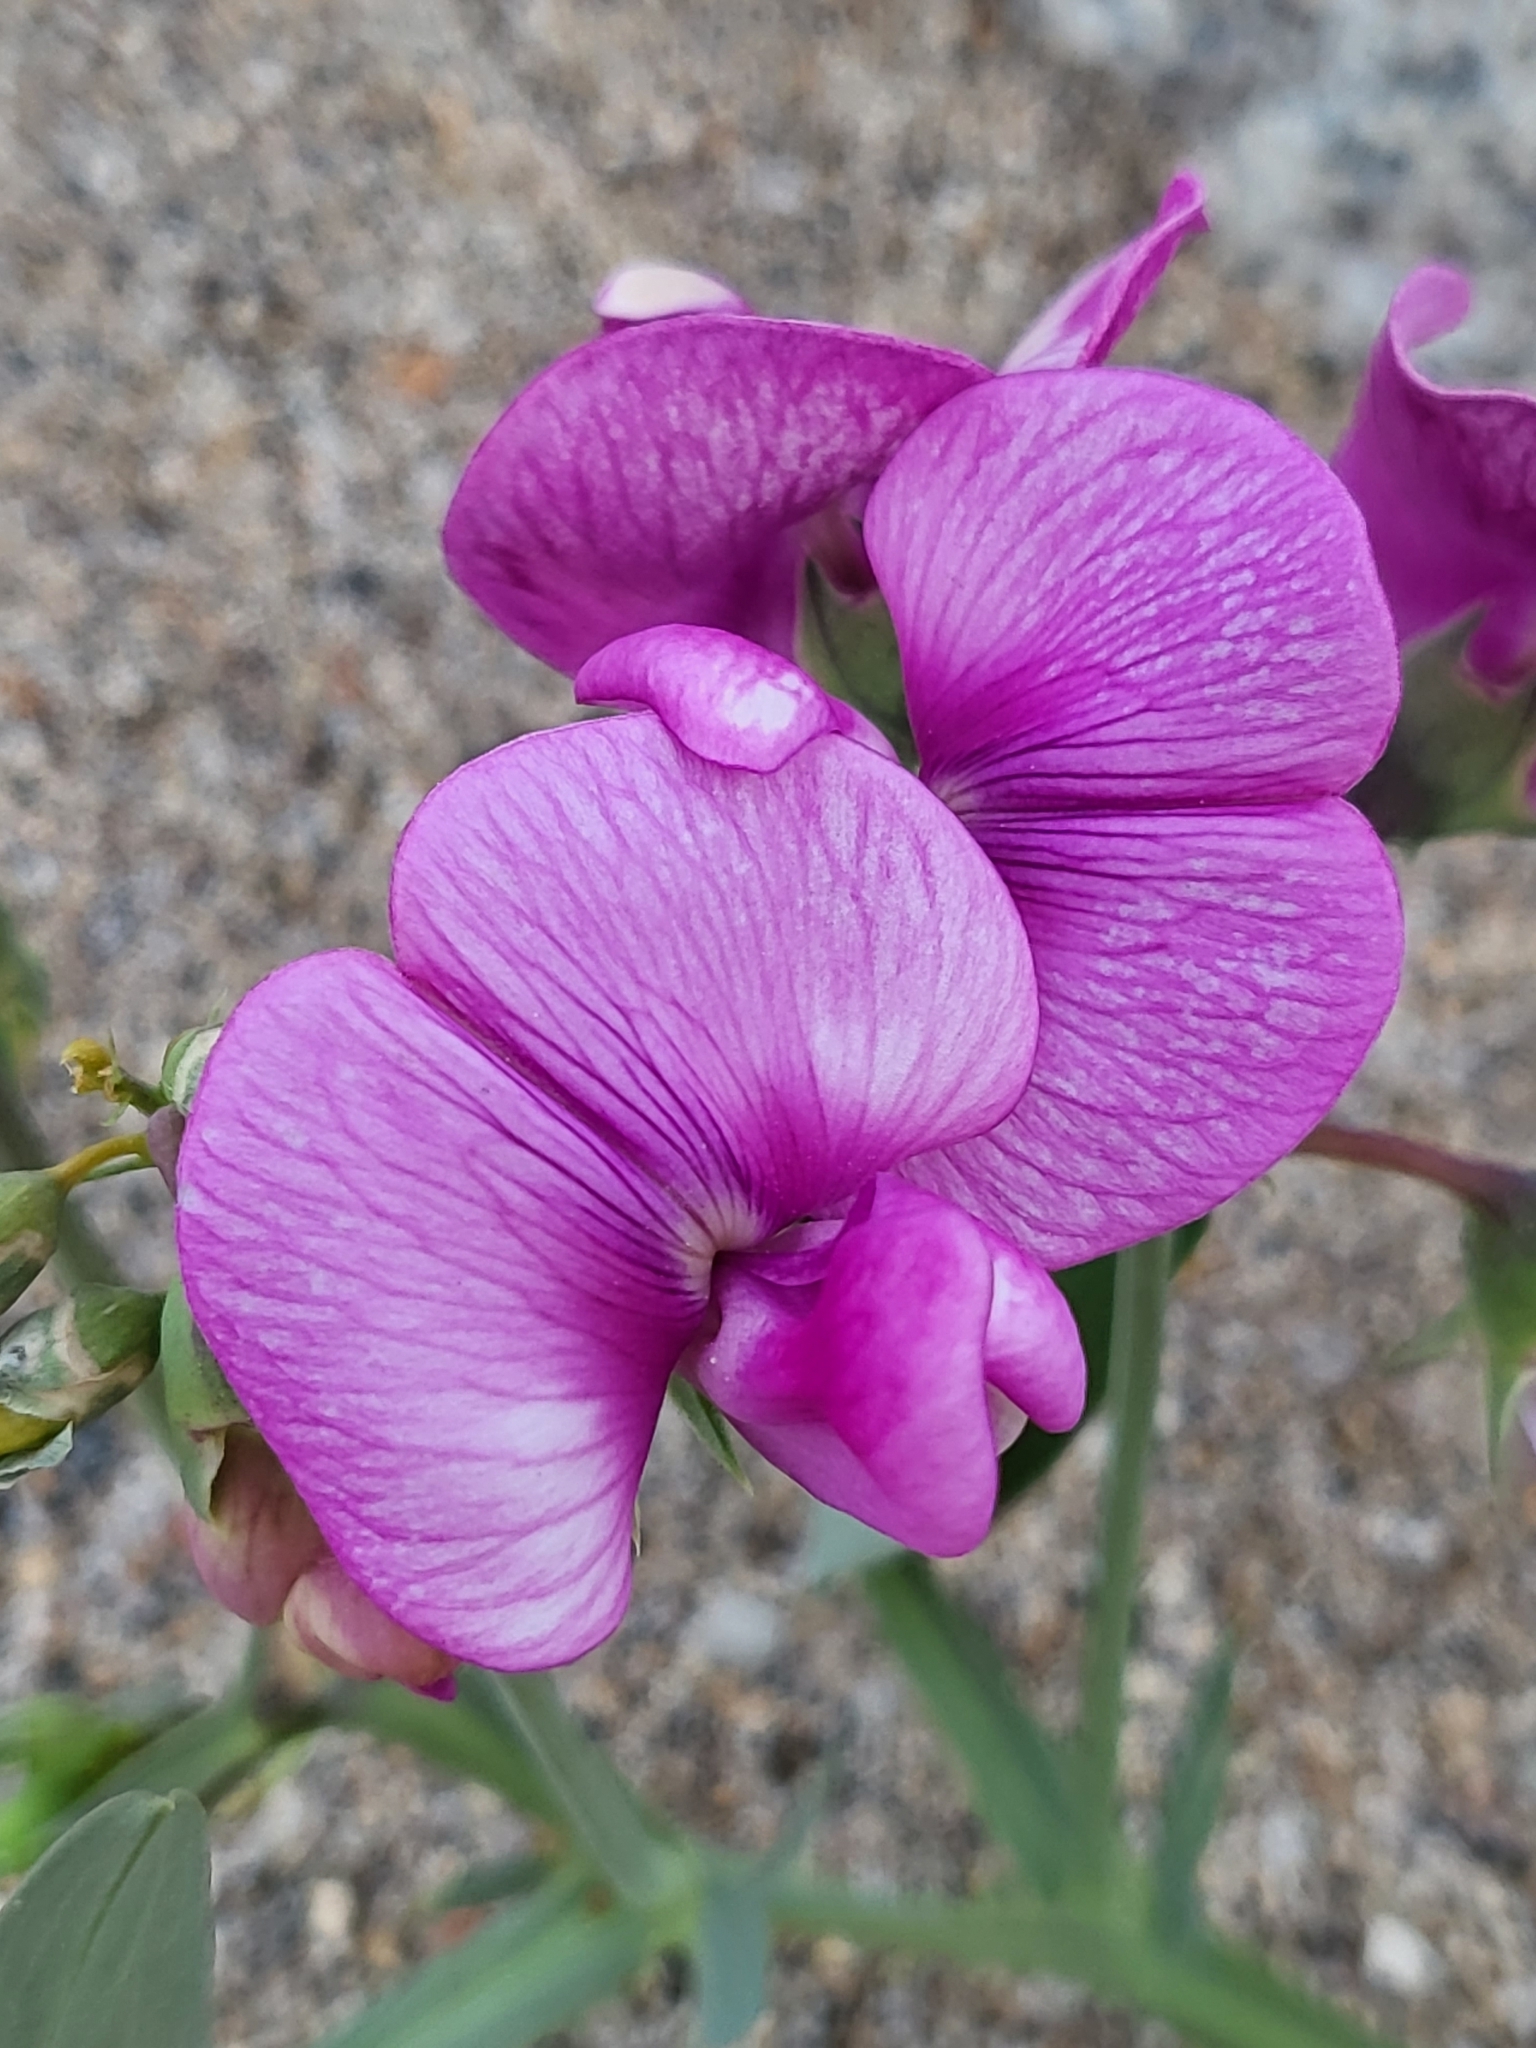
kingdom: Plantae
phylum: Tracheophyta
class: Magnoliopsida
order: Fabales
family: Fabaceae
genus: Lathyrus
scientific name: Lathyrus latifolius
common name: Perennial pea
